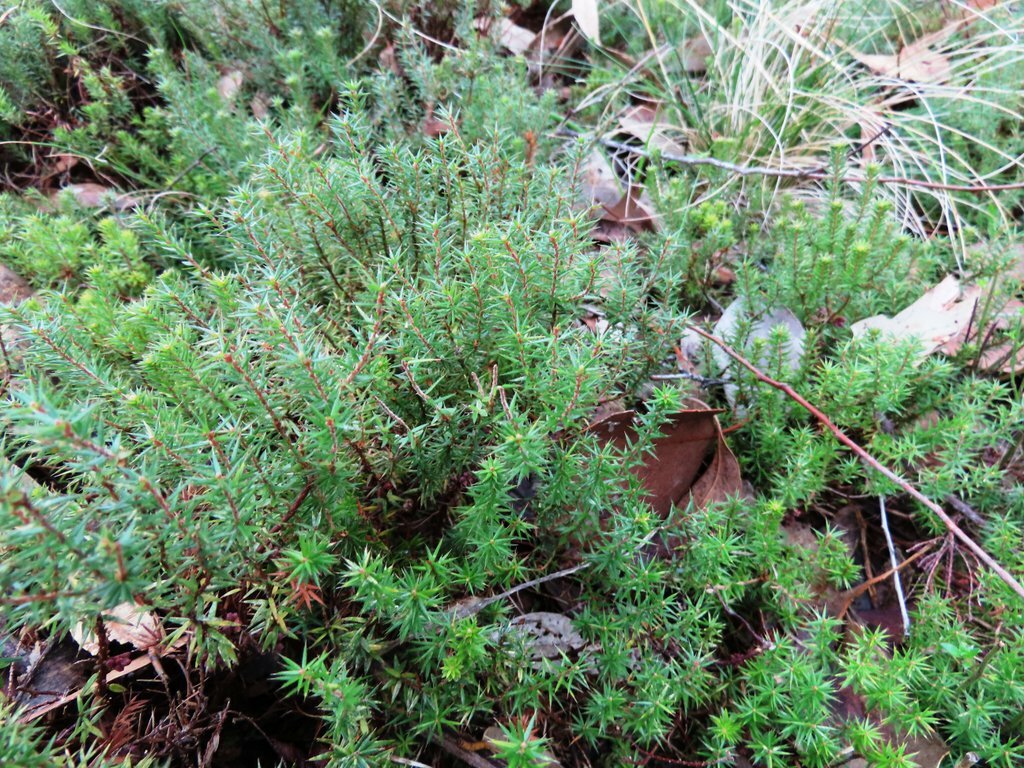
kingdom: Plantae
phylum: Tracheophyta
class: Magnoliopsida
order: Ericales
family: Ericaceae
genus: Acrotriche
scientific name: Acrotriche serrulata
